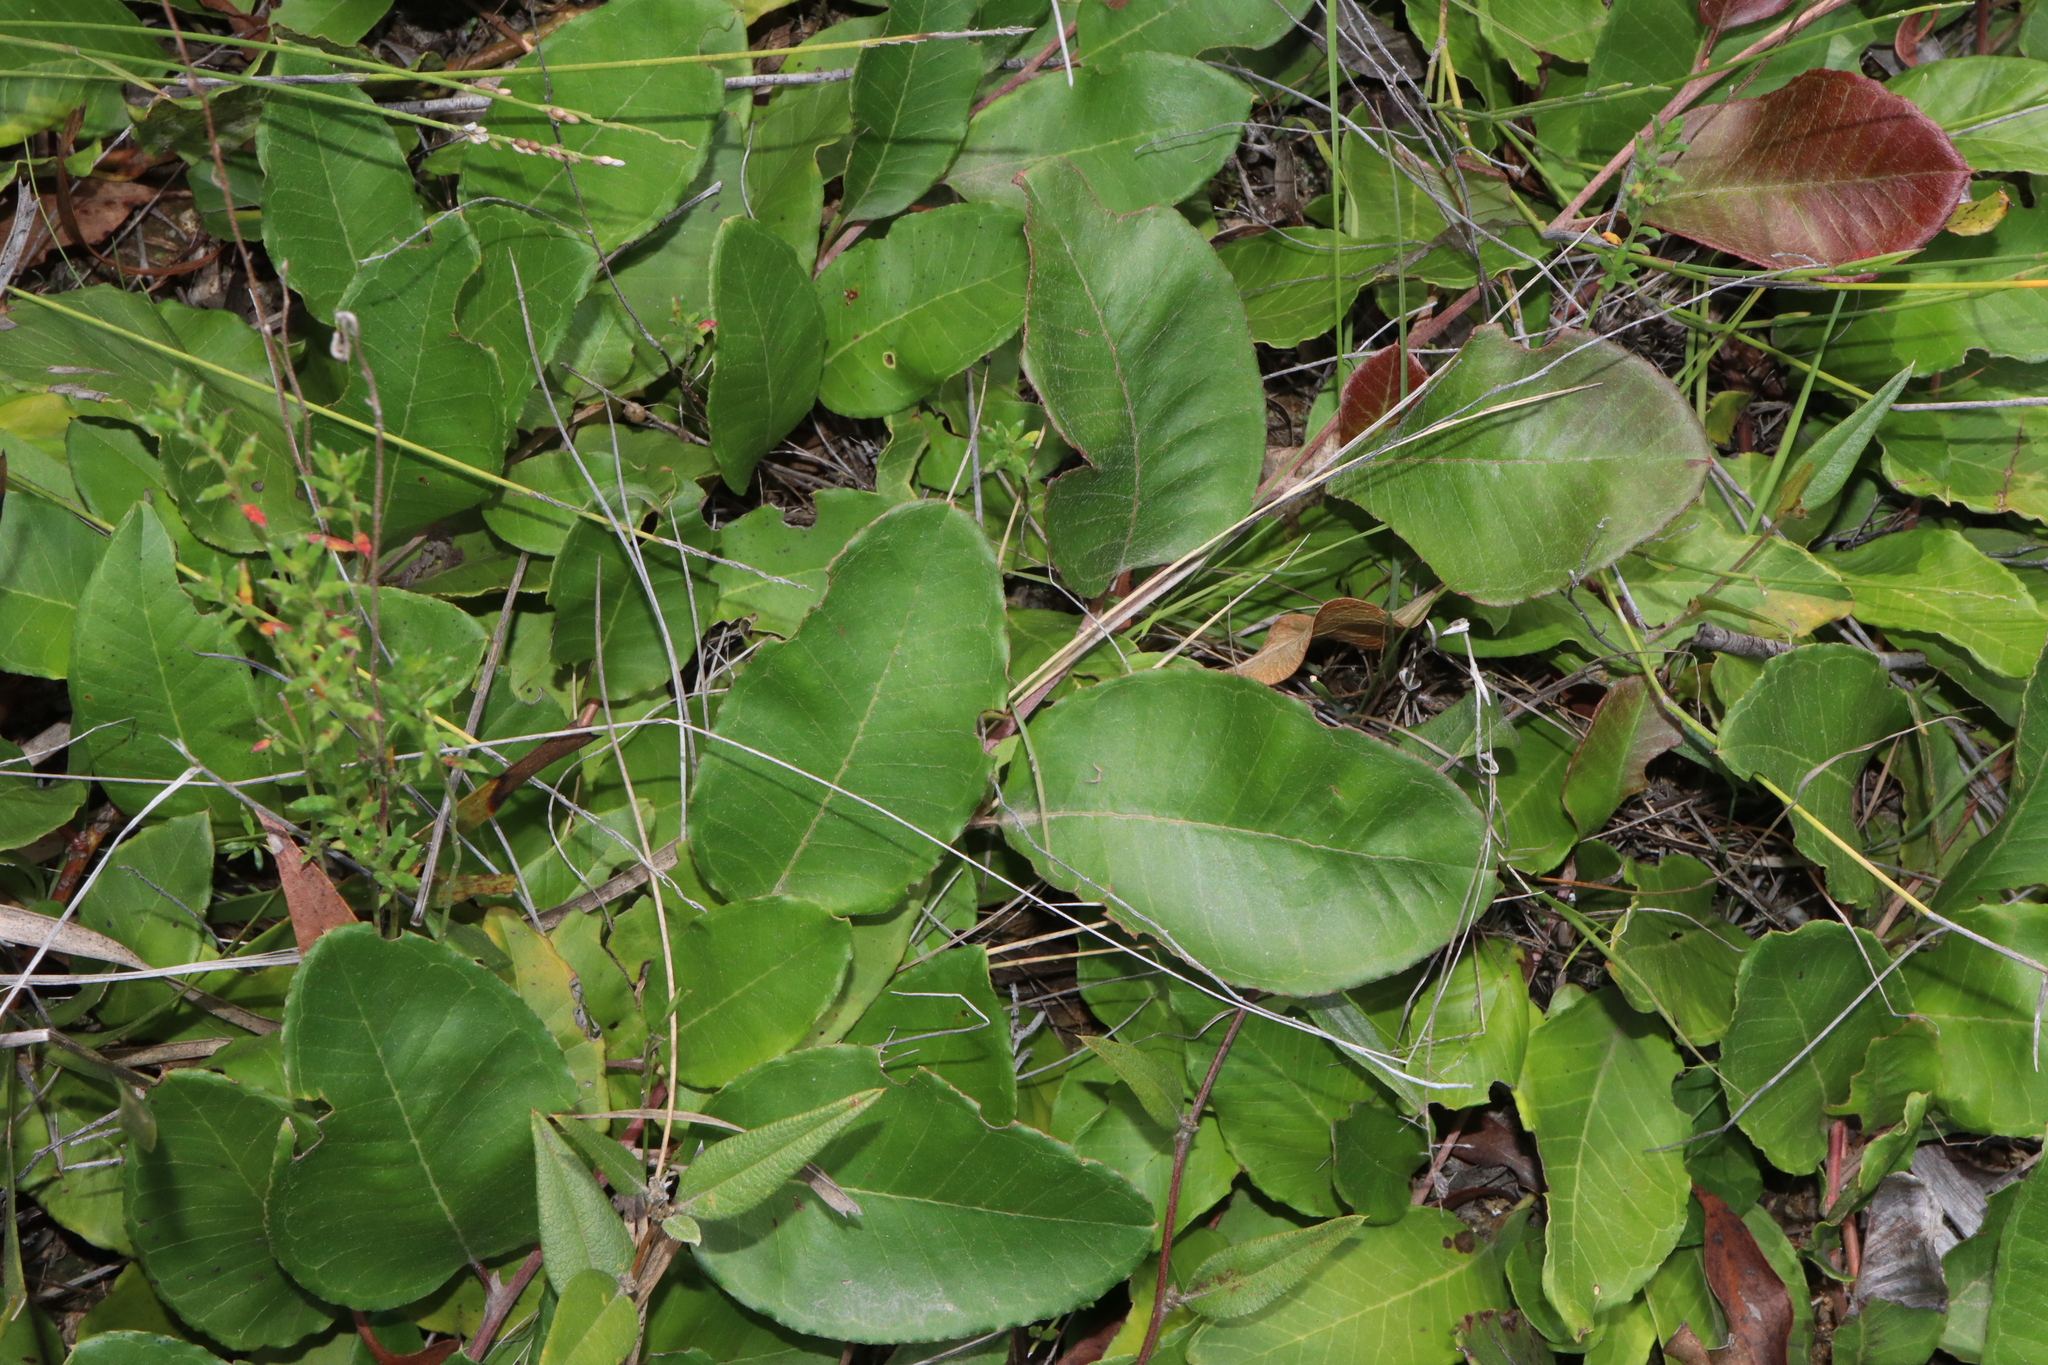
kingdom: Plantae
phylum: Tracheophyta
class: Magnoliopsida
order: Proteales
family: Proteaceae
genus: Grevillea
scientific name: Grevillea laurifolia
